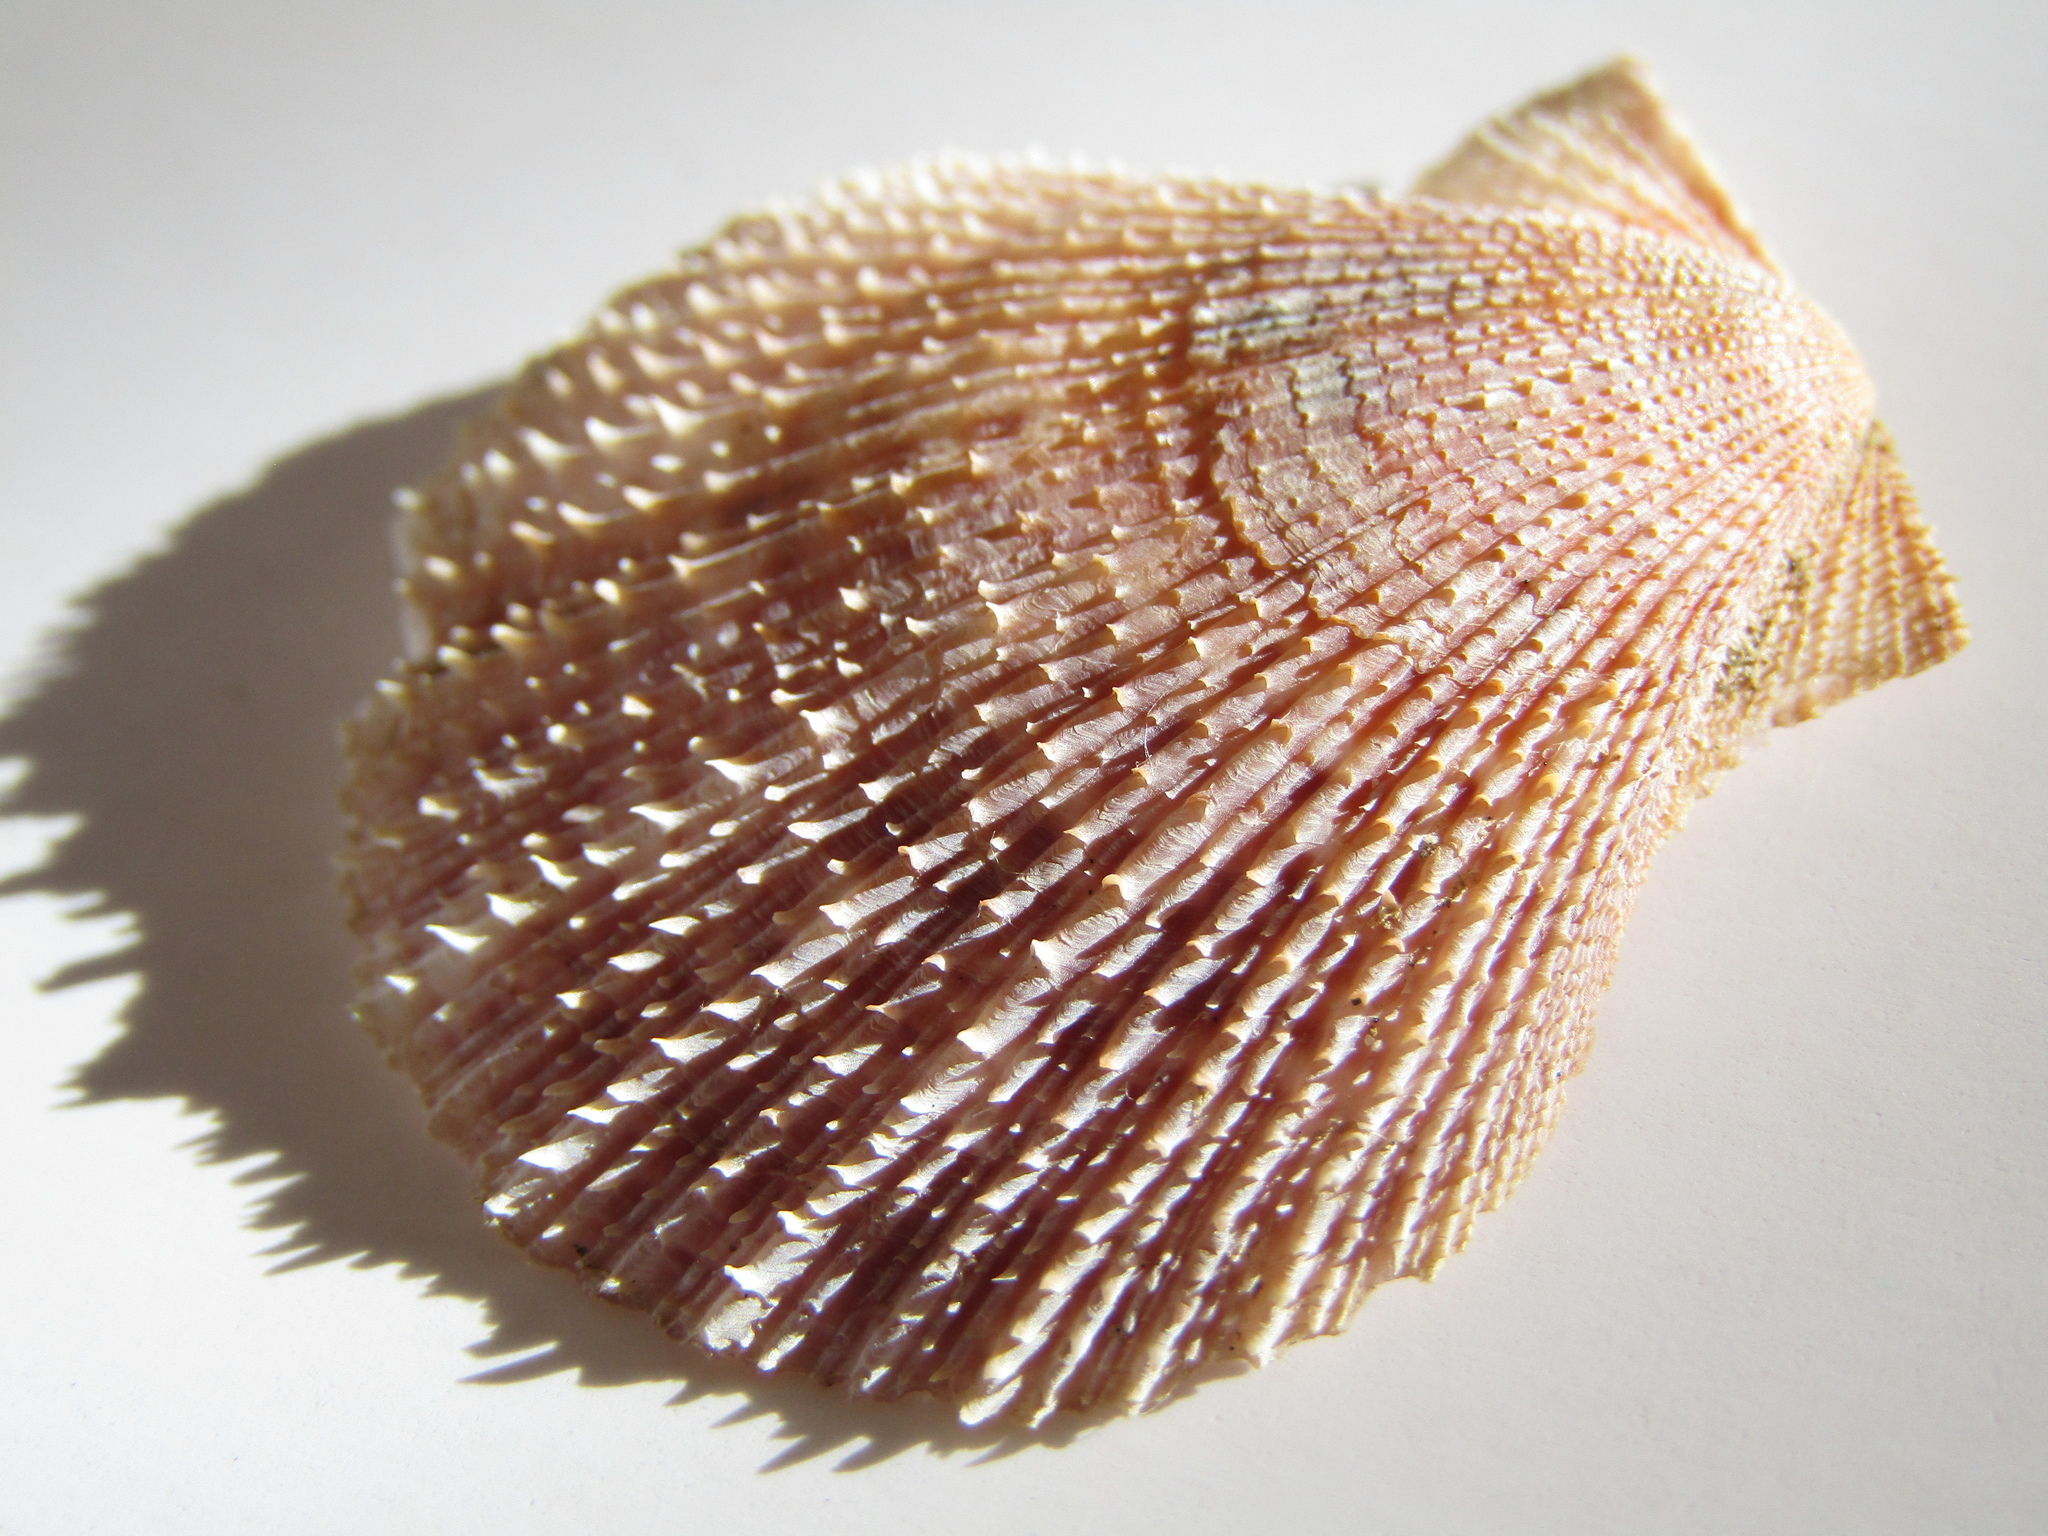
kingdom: Animalia
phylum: Mollusca
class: Bivalvia
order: Pectinida
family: Pectinidae
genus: Talochlamys
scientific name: Talochlamys zelandiae
